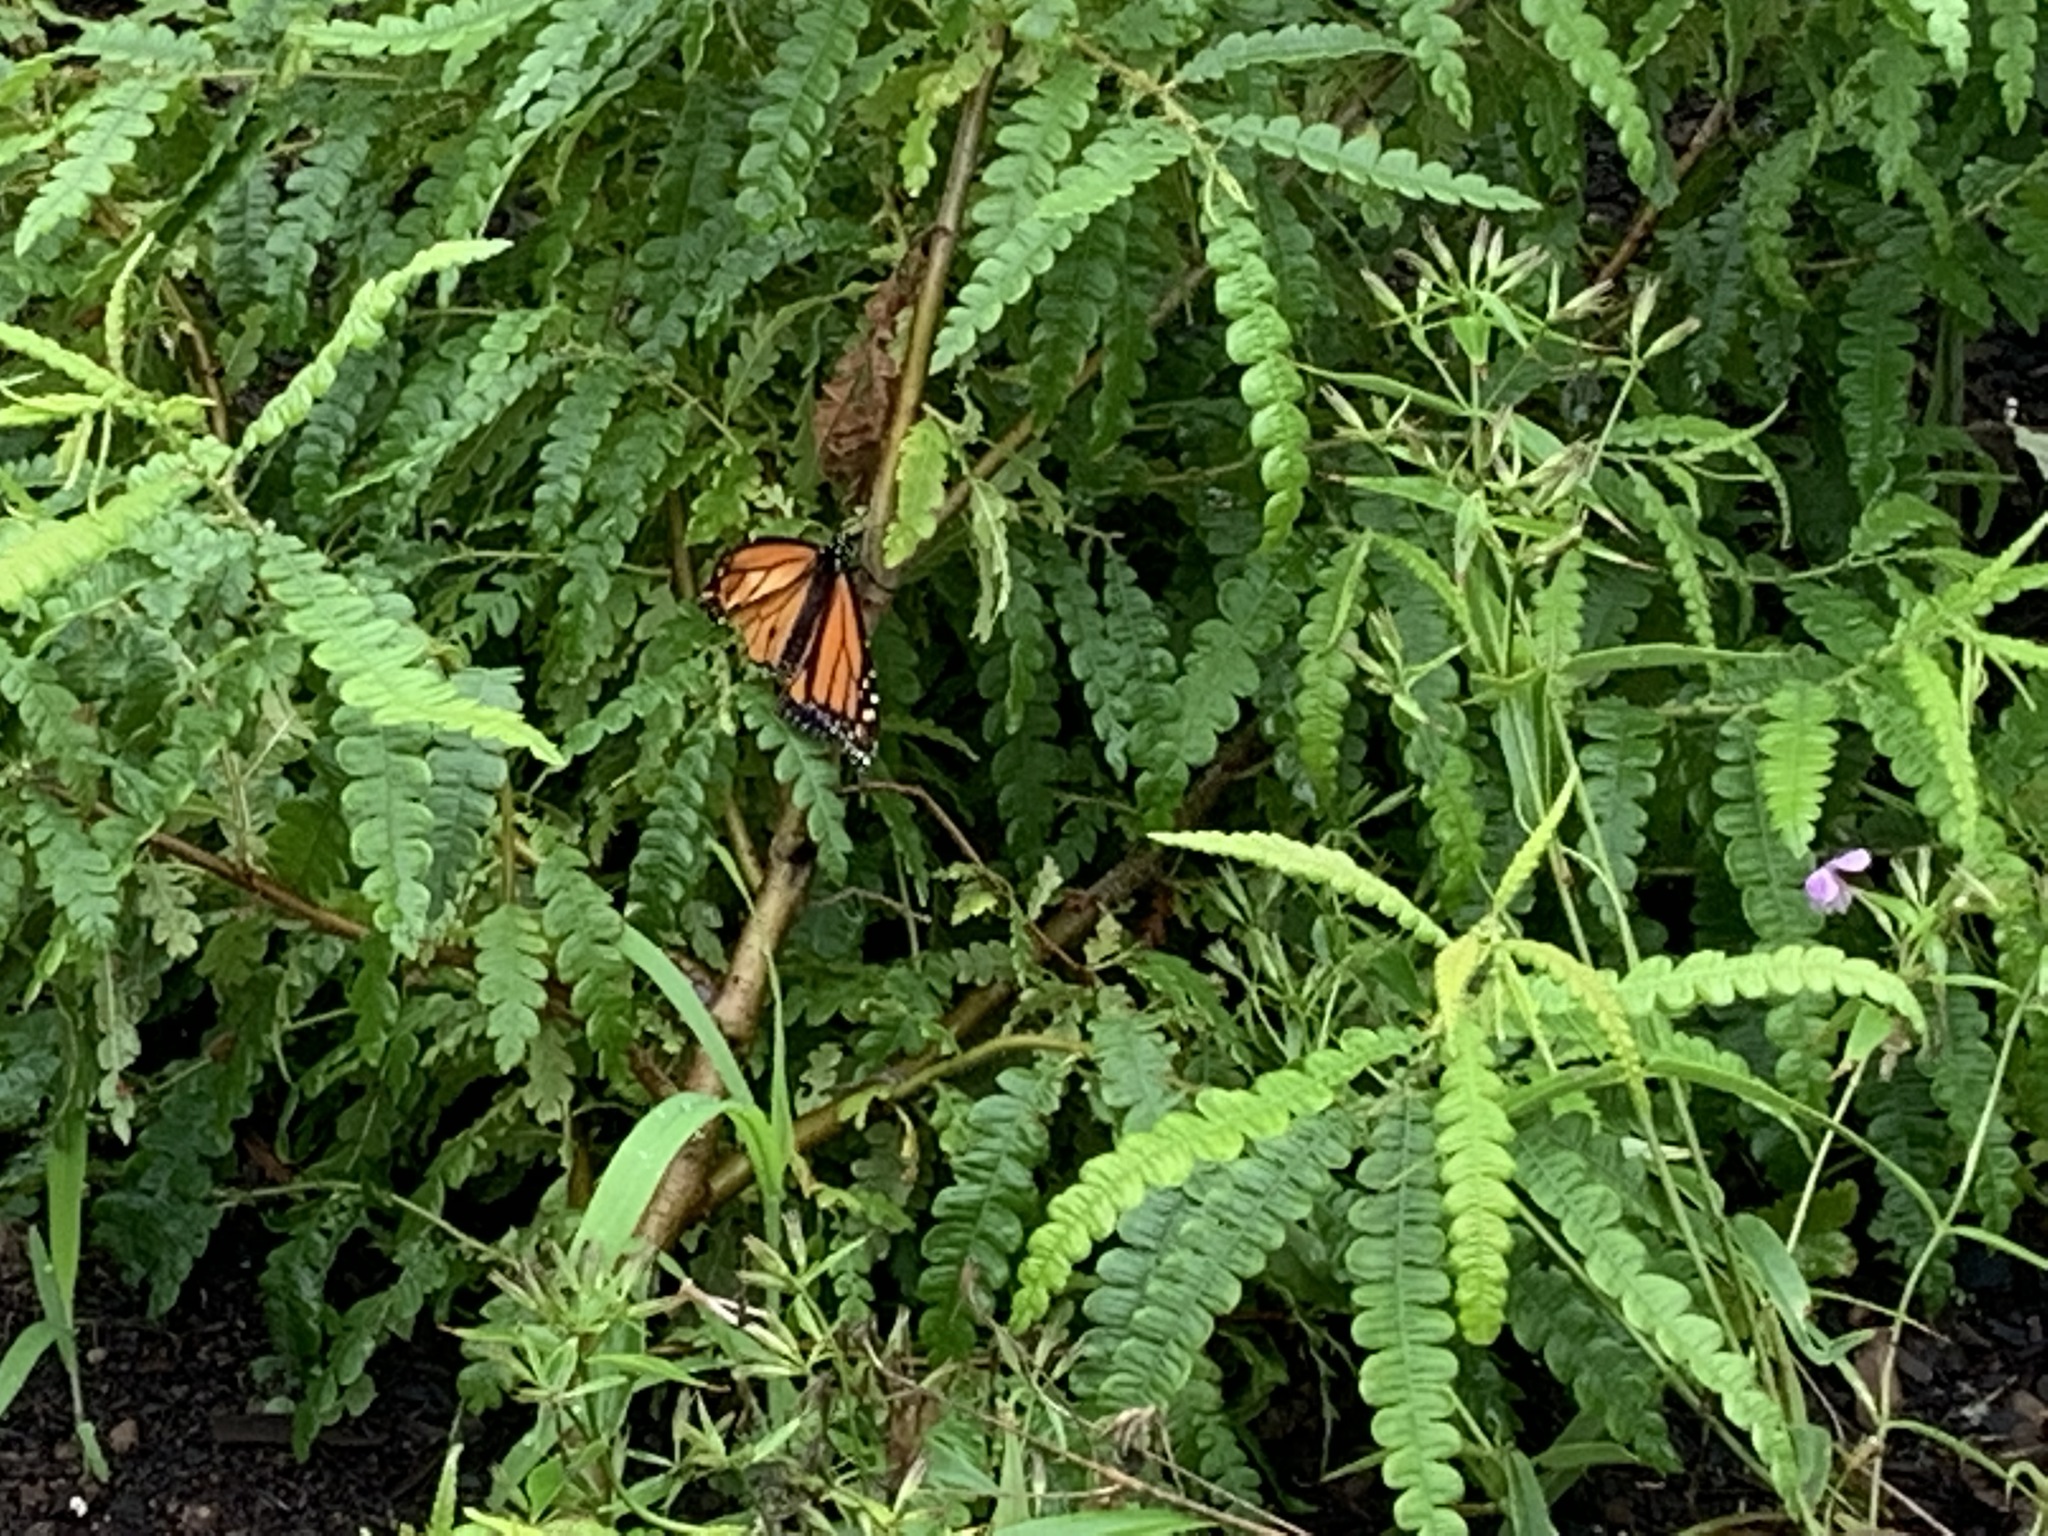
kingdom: Animalia
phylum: Arthropoda
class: Insecta
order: Lepidoptera
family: Nymphalidae
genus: Danaus
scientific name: Danaus plexippus
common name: Monarch
